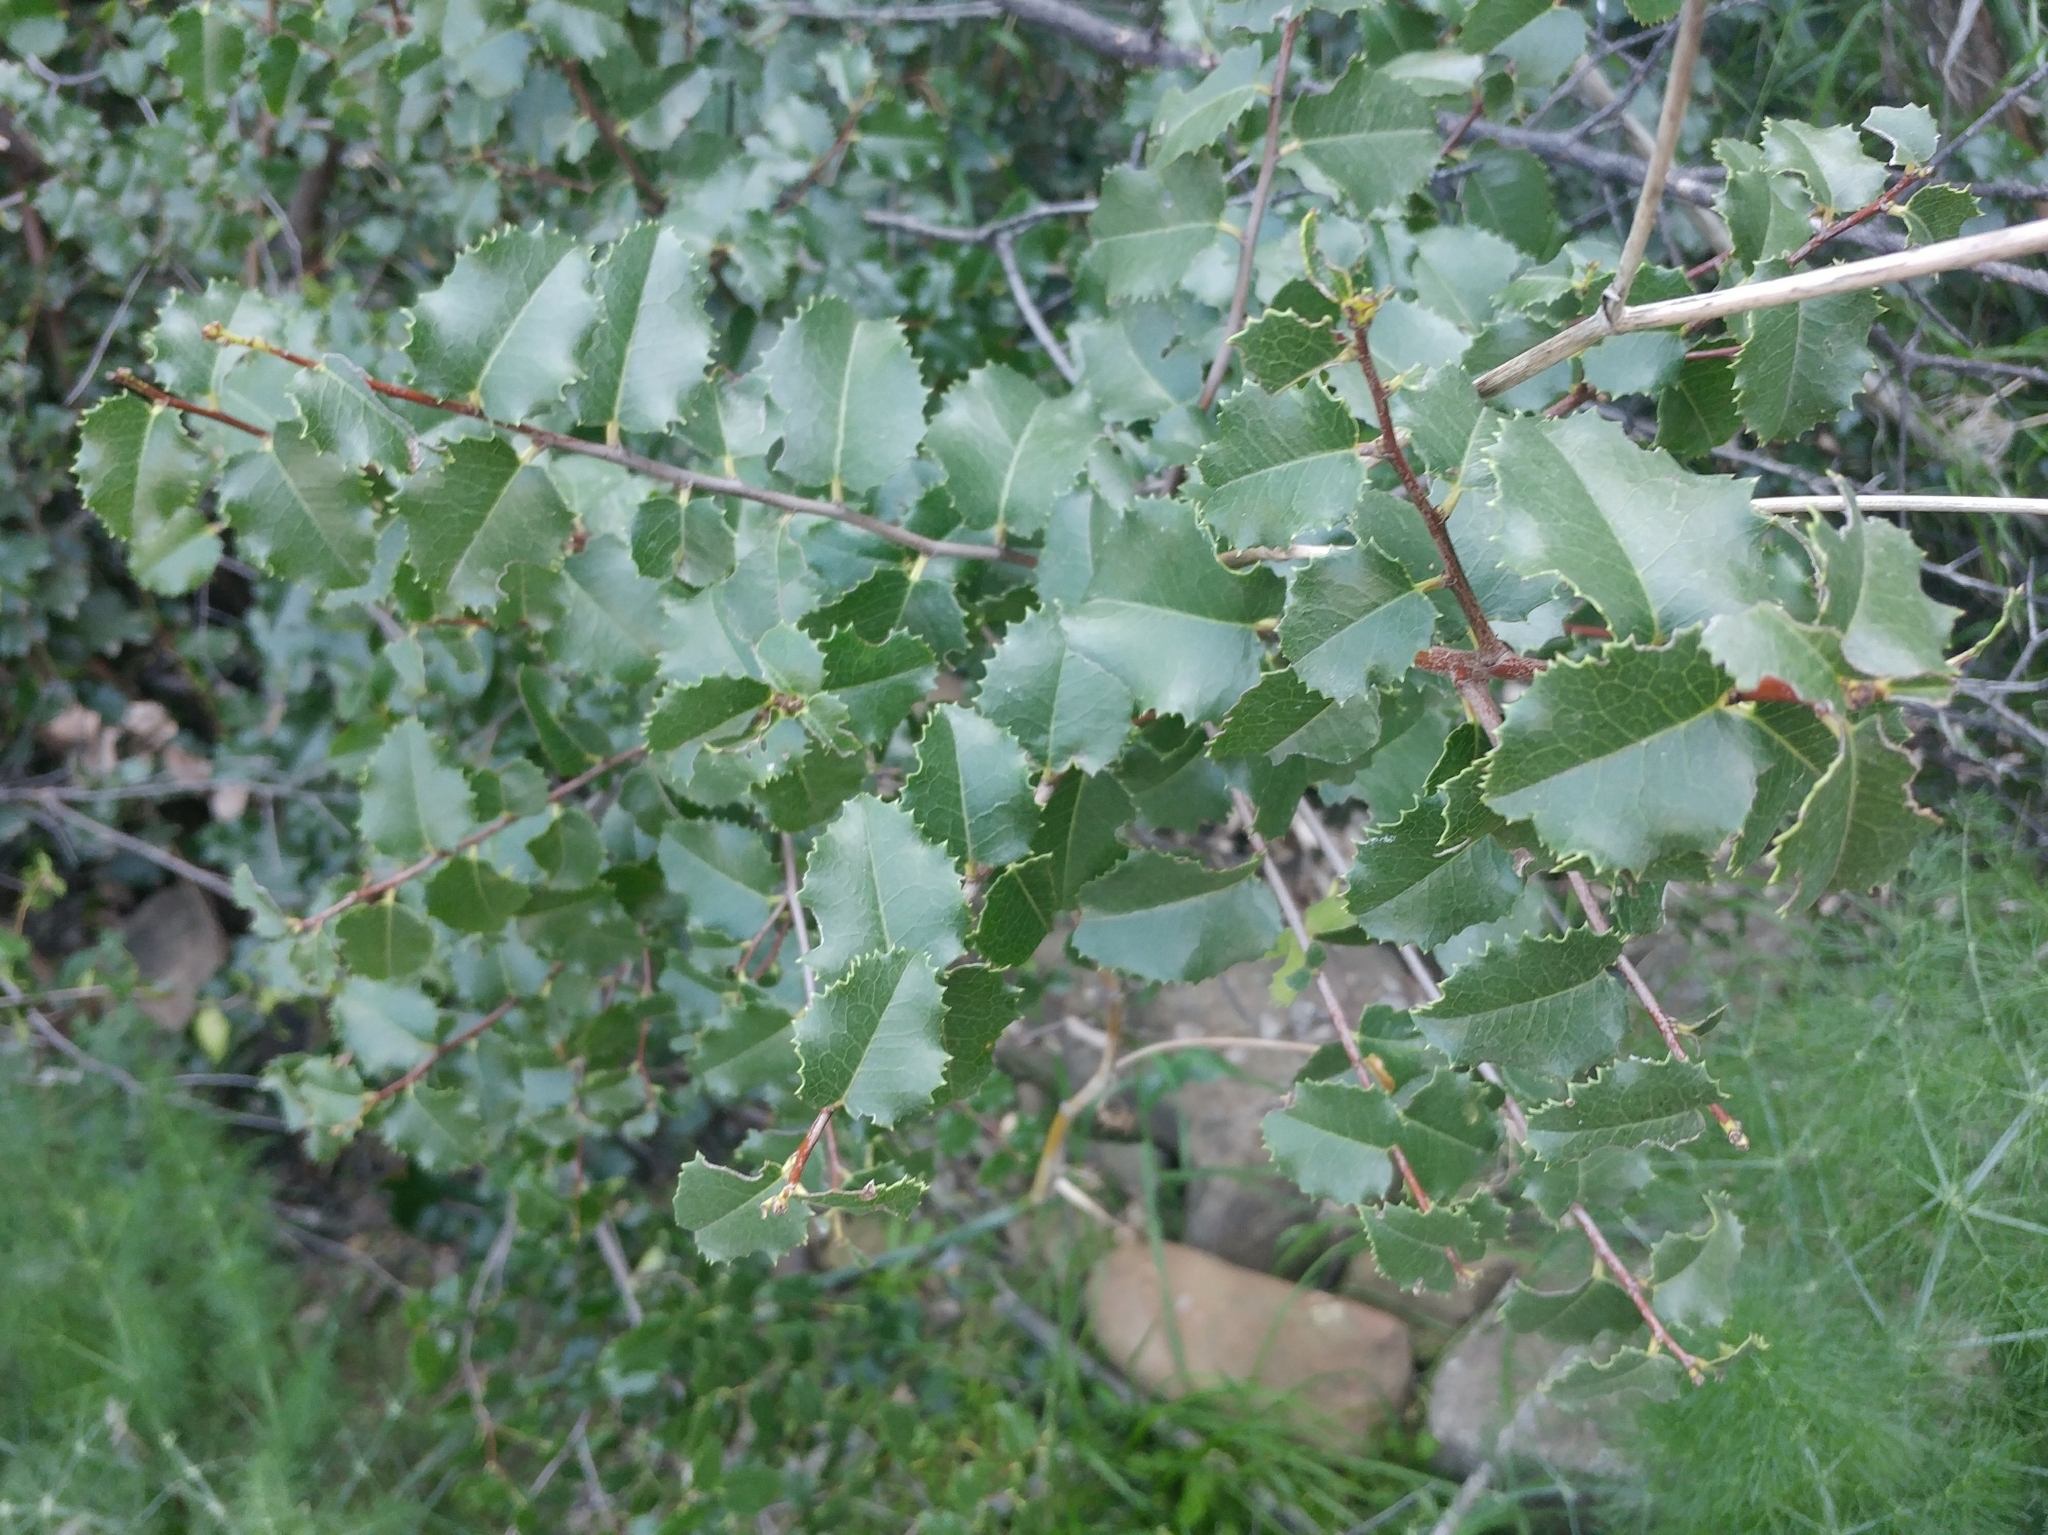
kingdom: Plantae
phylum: Tracheophyta
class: Magnoliopsida
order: Rosales
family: Rosaceae
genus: Prunus
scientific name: Prunus ilicifolia
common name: Hollyleaf cherry
